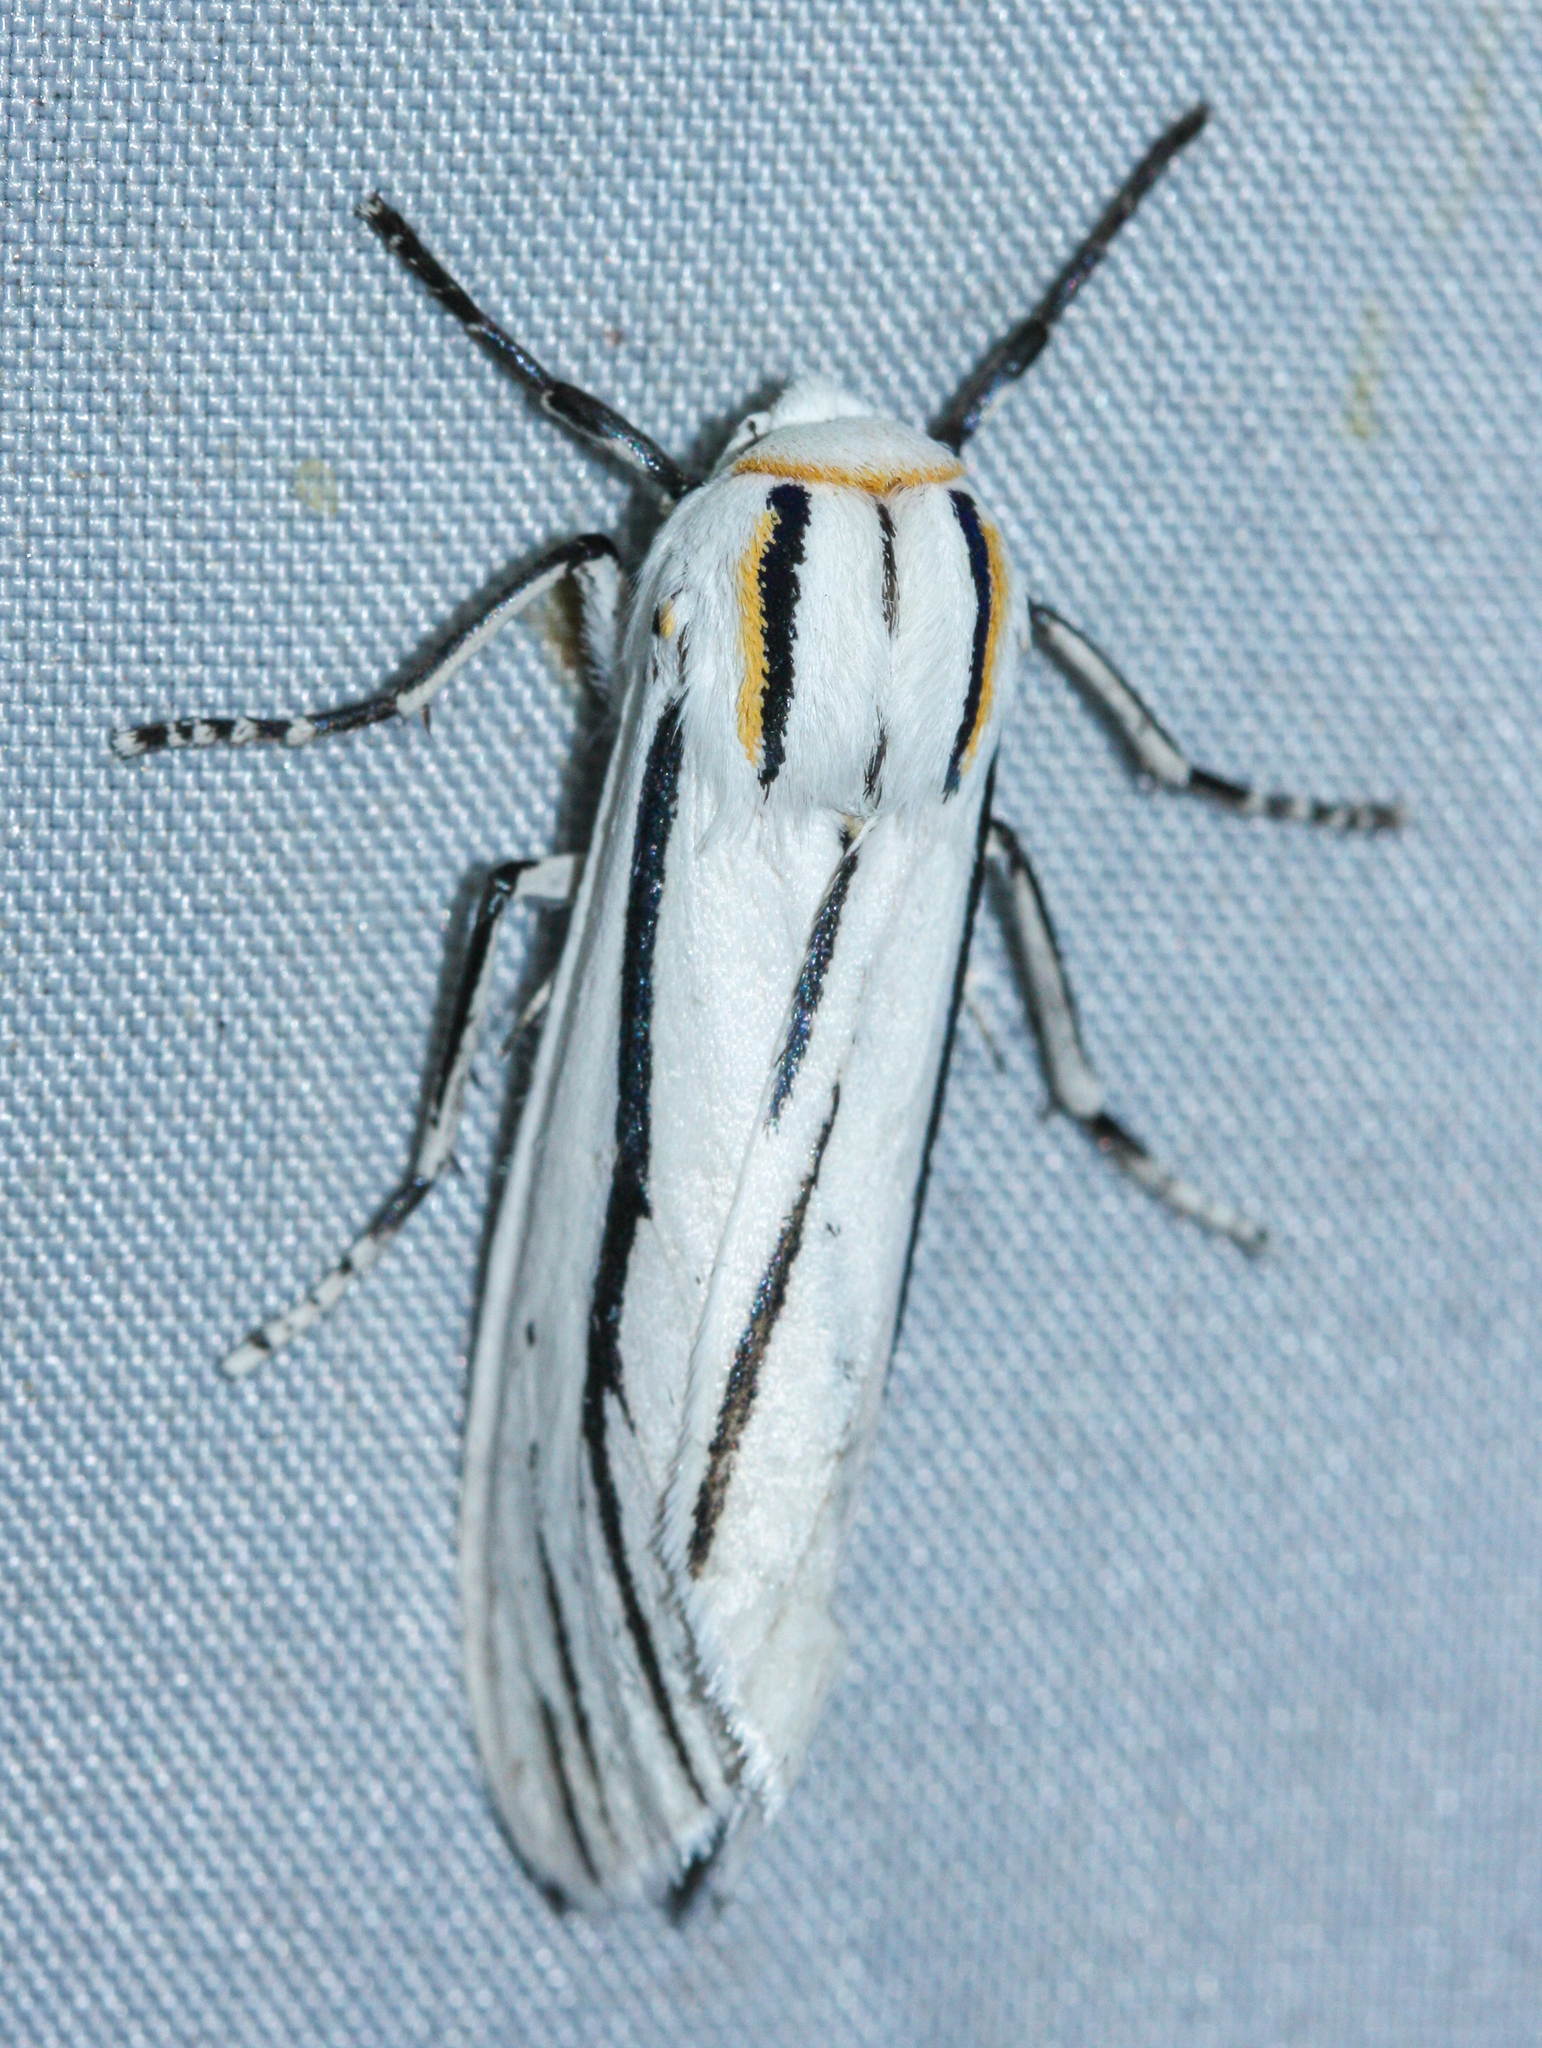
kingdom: Animalia
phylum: Arthropoda
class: Insecta
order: Lepidoptera
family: Erebidae
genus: Ectypia
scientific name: Ectypia clio
